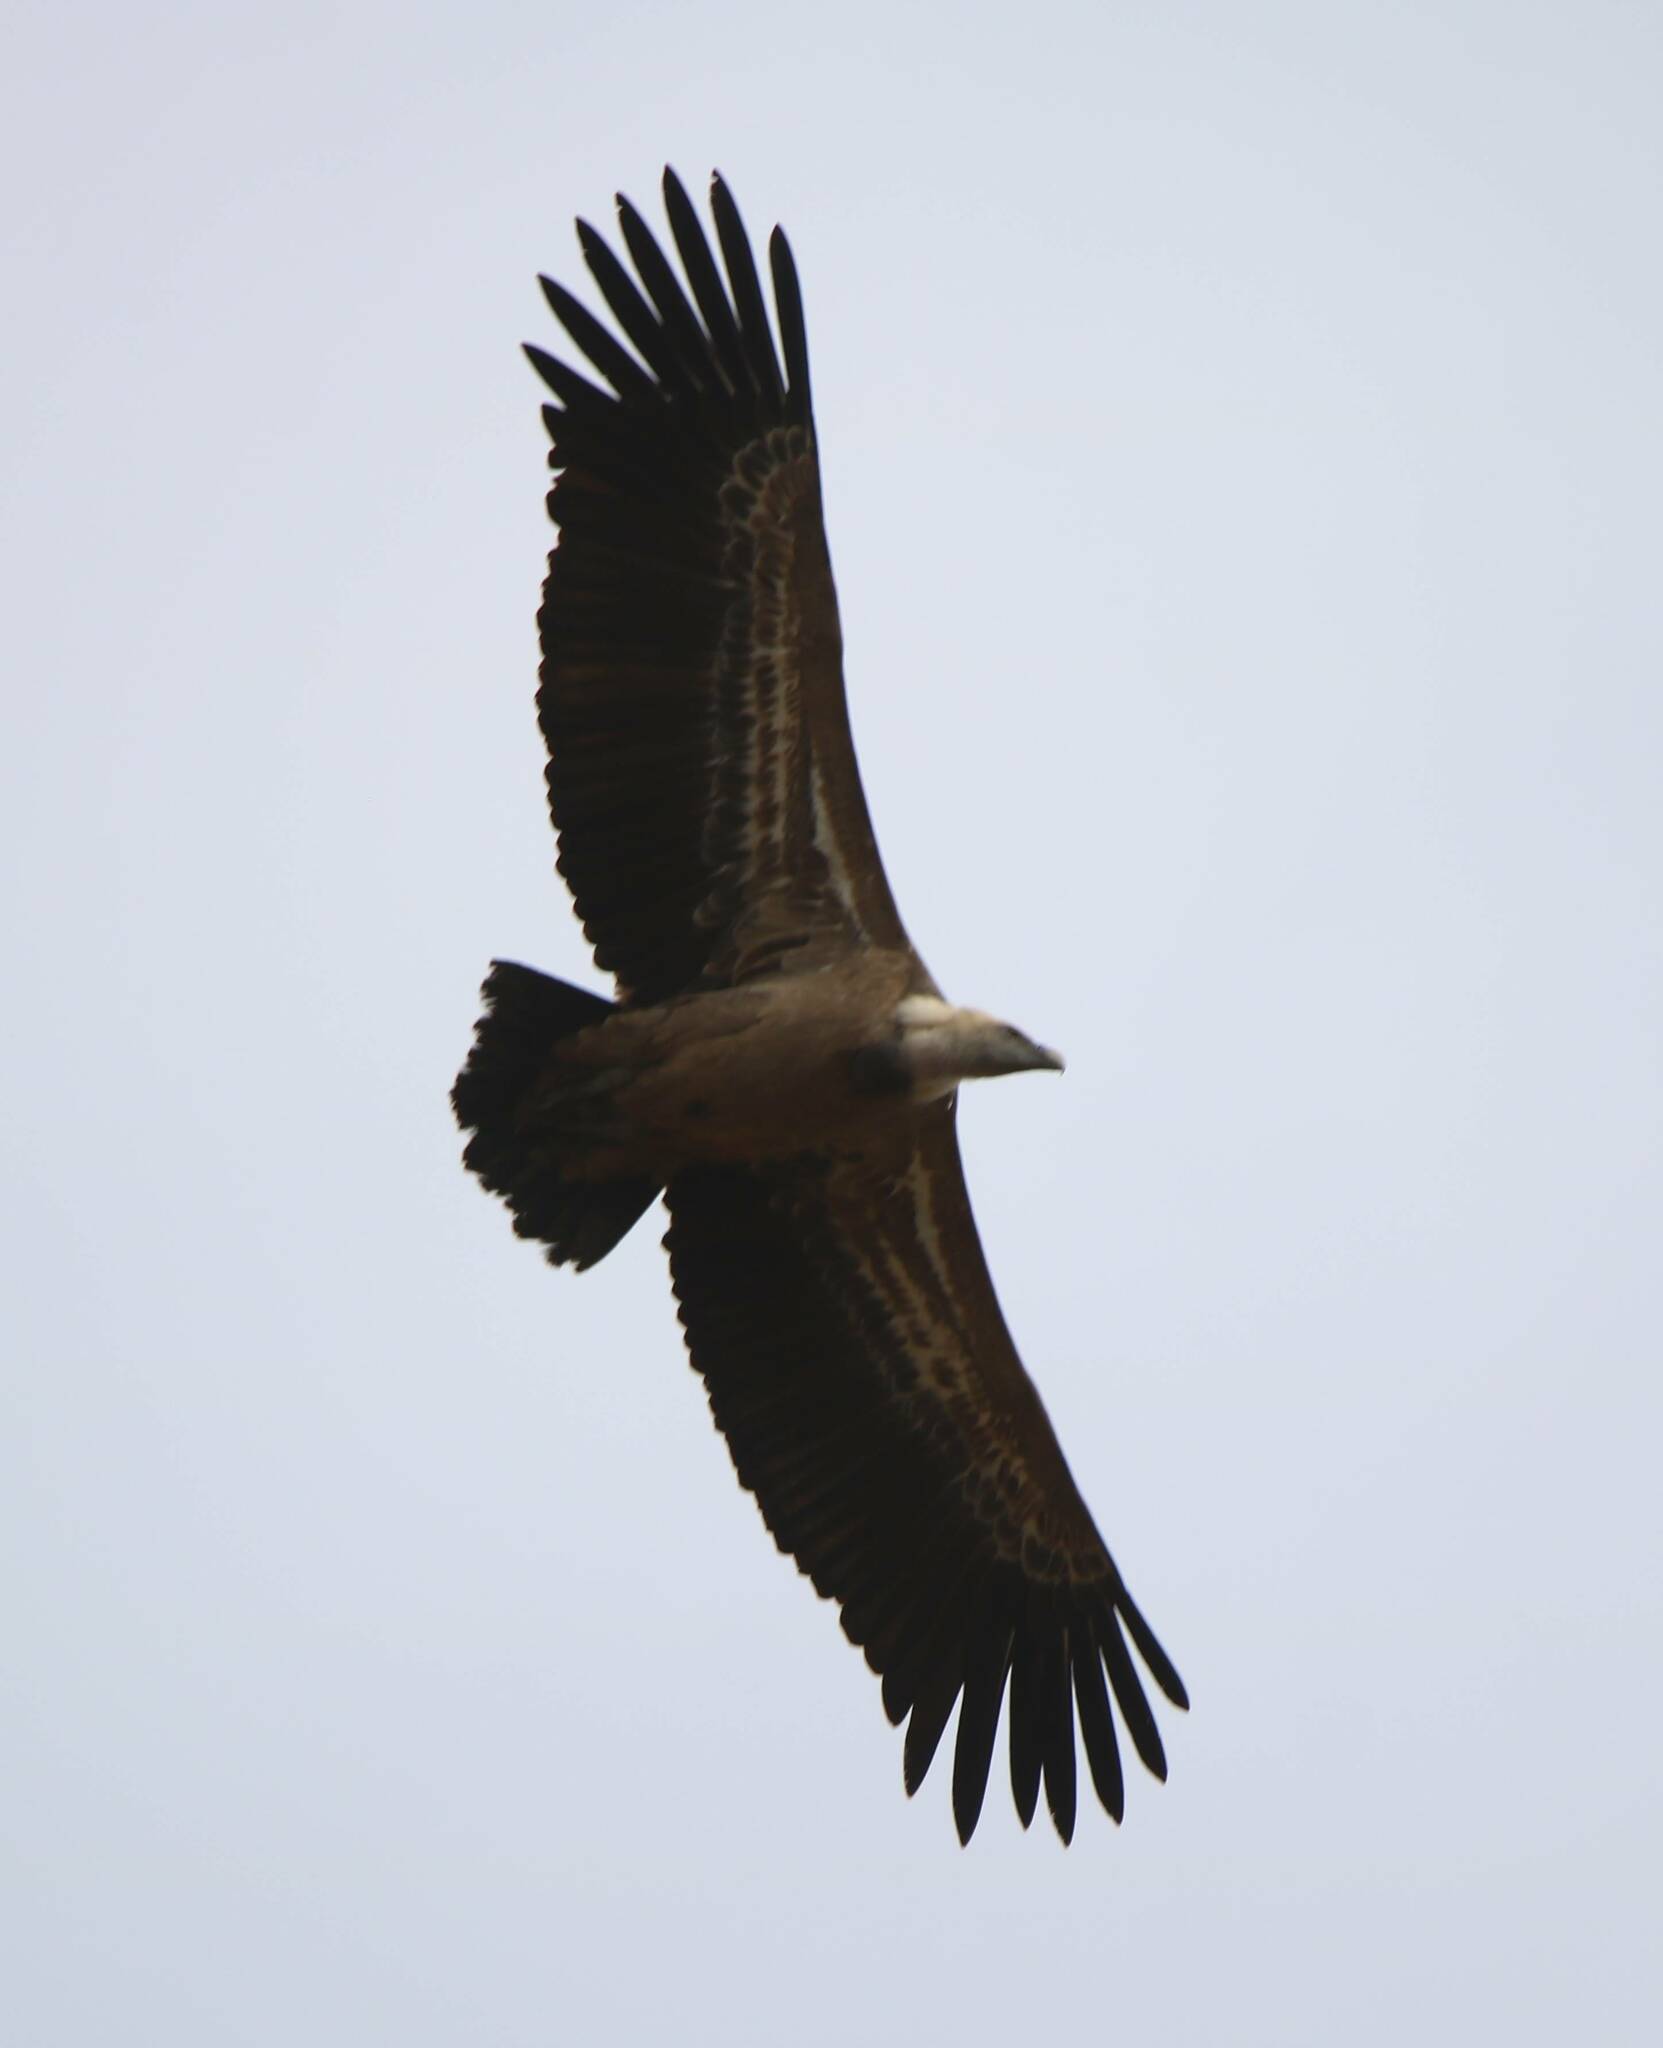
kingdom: Animalia
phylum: Chordata
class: Aves
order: Accipitriformes
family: Accipitridae
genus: Gyps
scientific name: Gyps fulvus
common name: Griffon vulture
